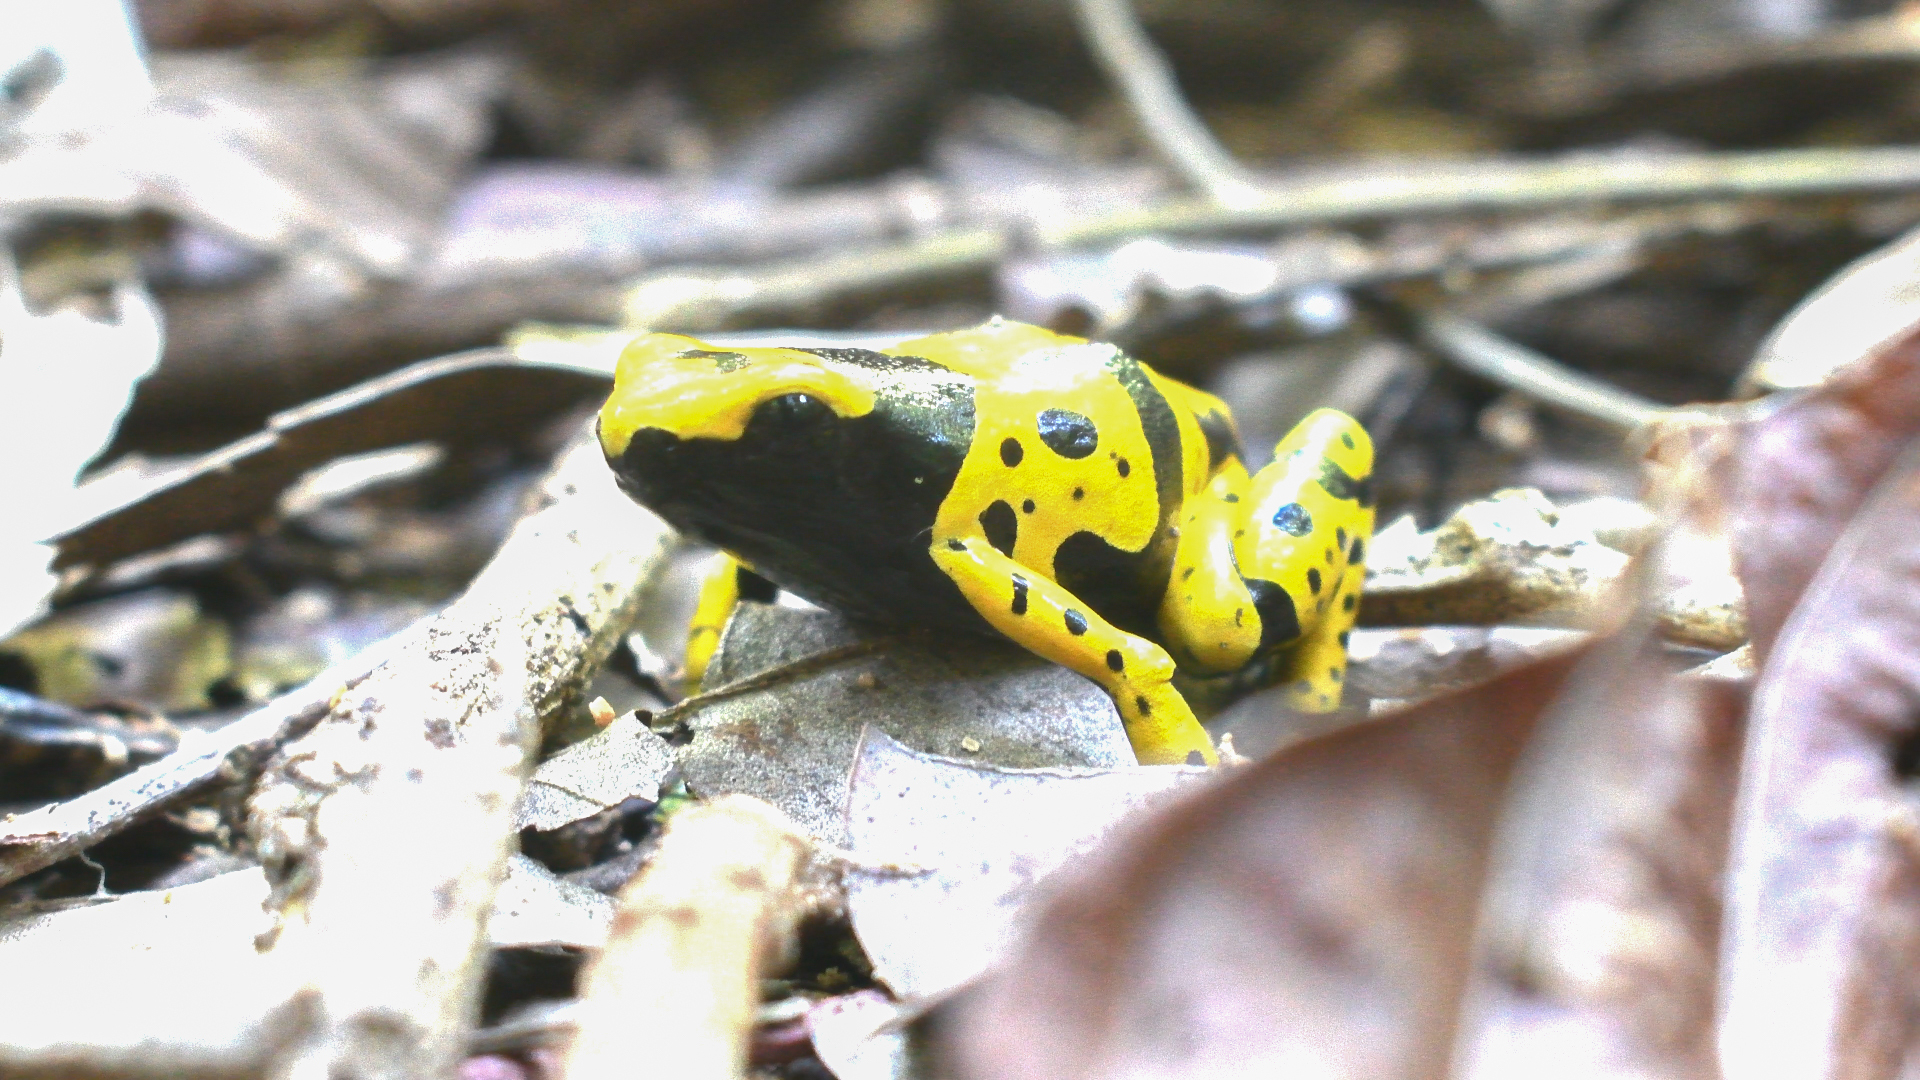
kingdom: Animalia
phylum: Chordata
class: Amphibia
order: Anura
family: Dendrobatidae
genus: Dendrobates
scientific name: Dendrobates leucomelas
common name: Yellow-banded poison frog
